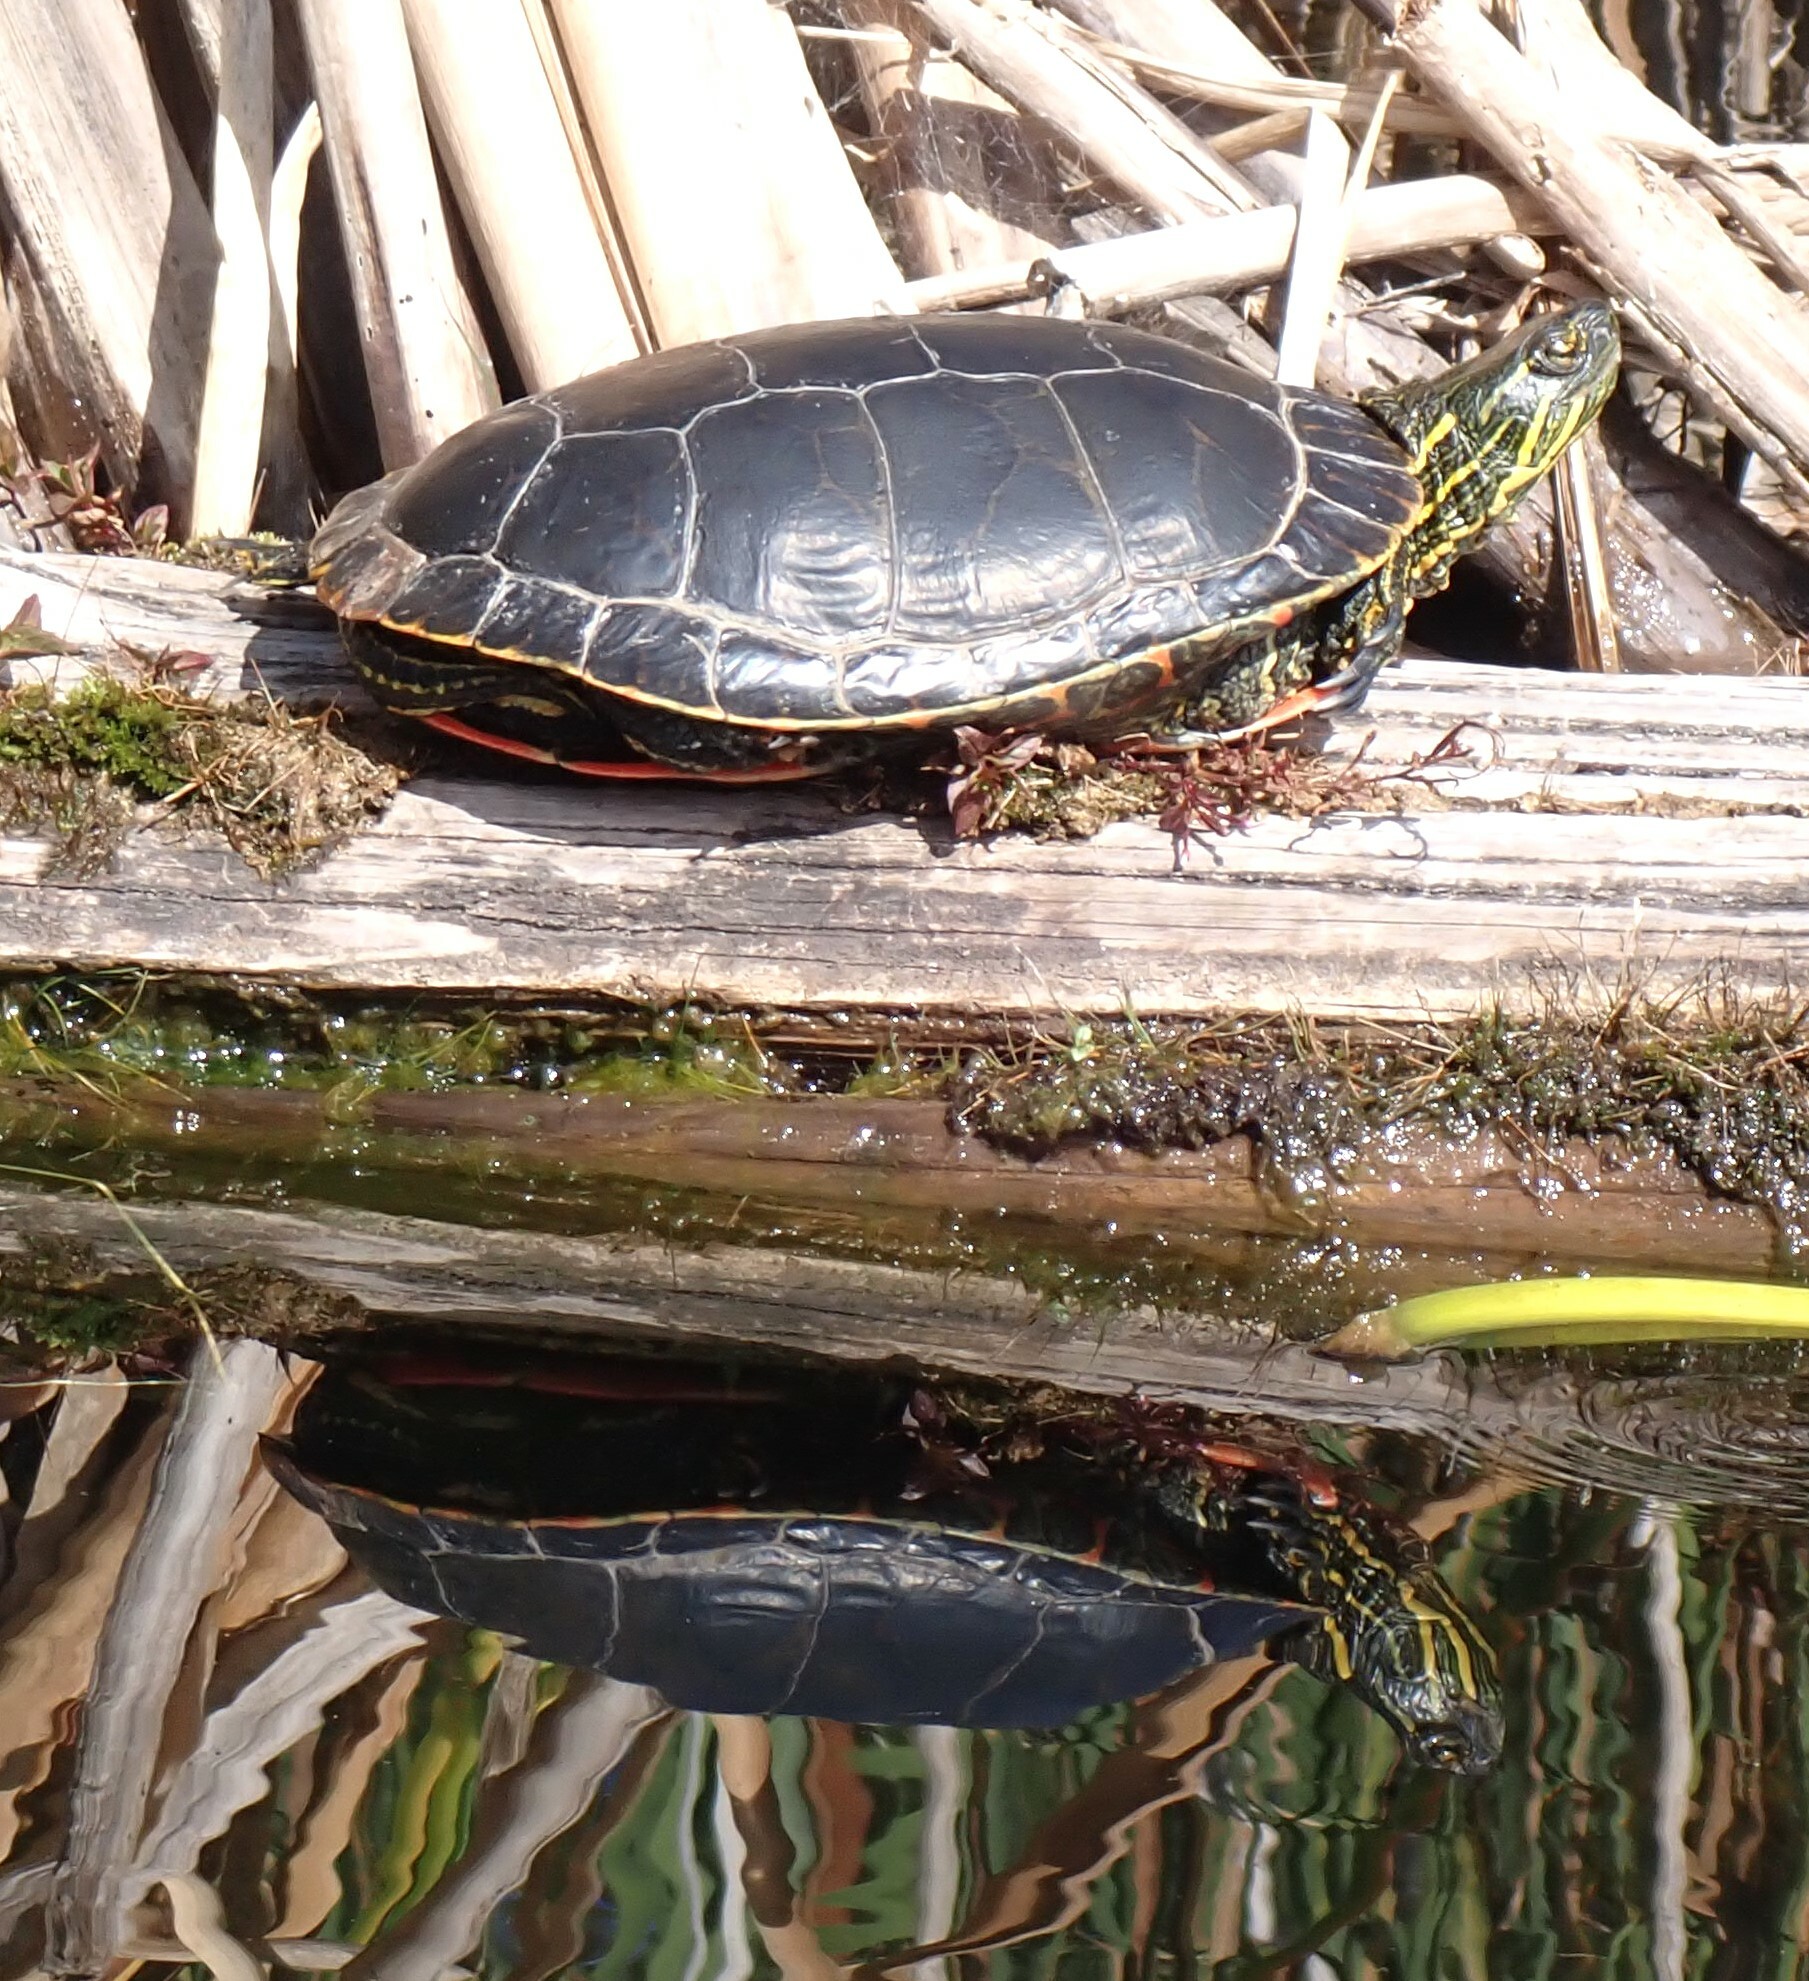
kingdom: Animalia
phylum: Chordata
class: Testudines
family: Emydidae
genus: Chrysemys
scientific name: Chrysemys picta
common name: Painted turtle
